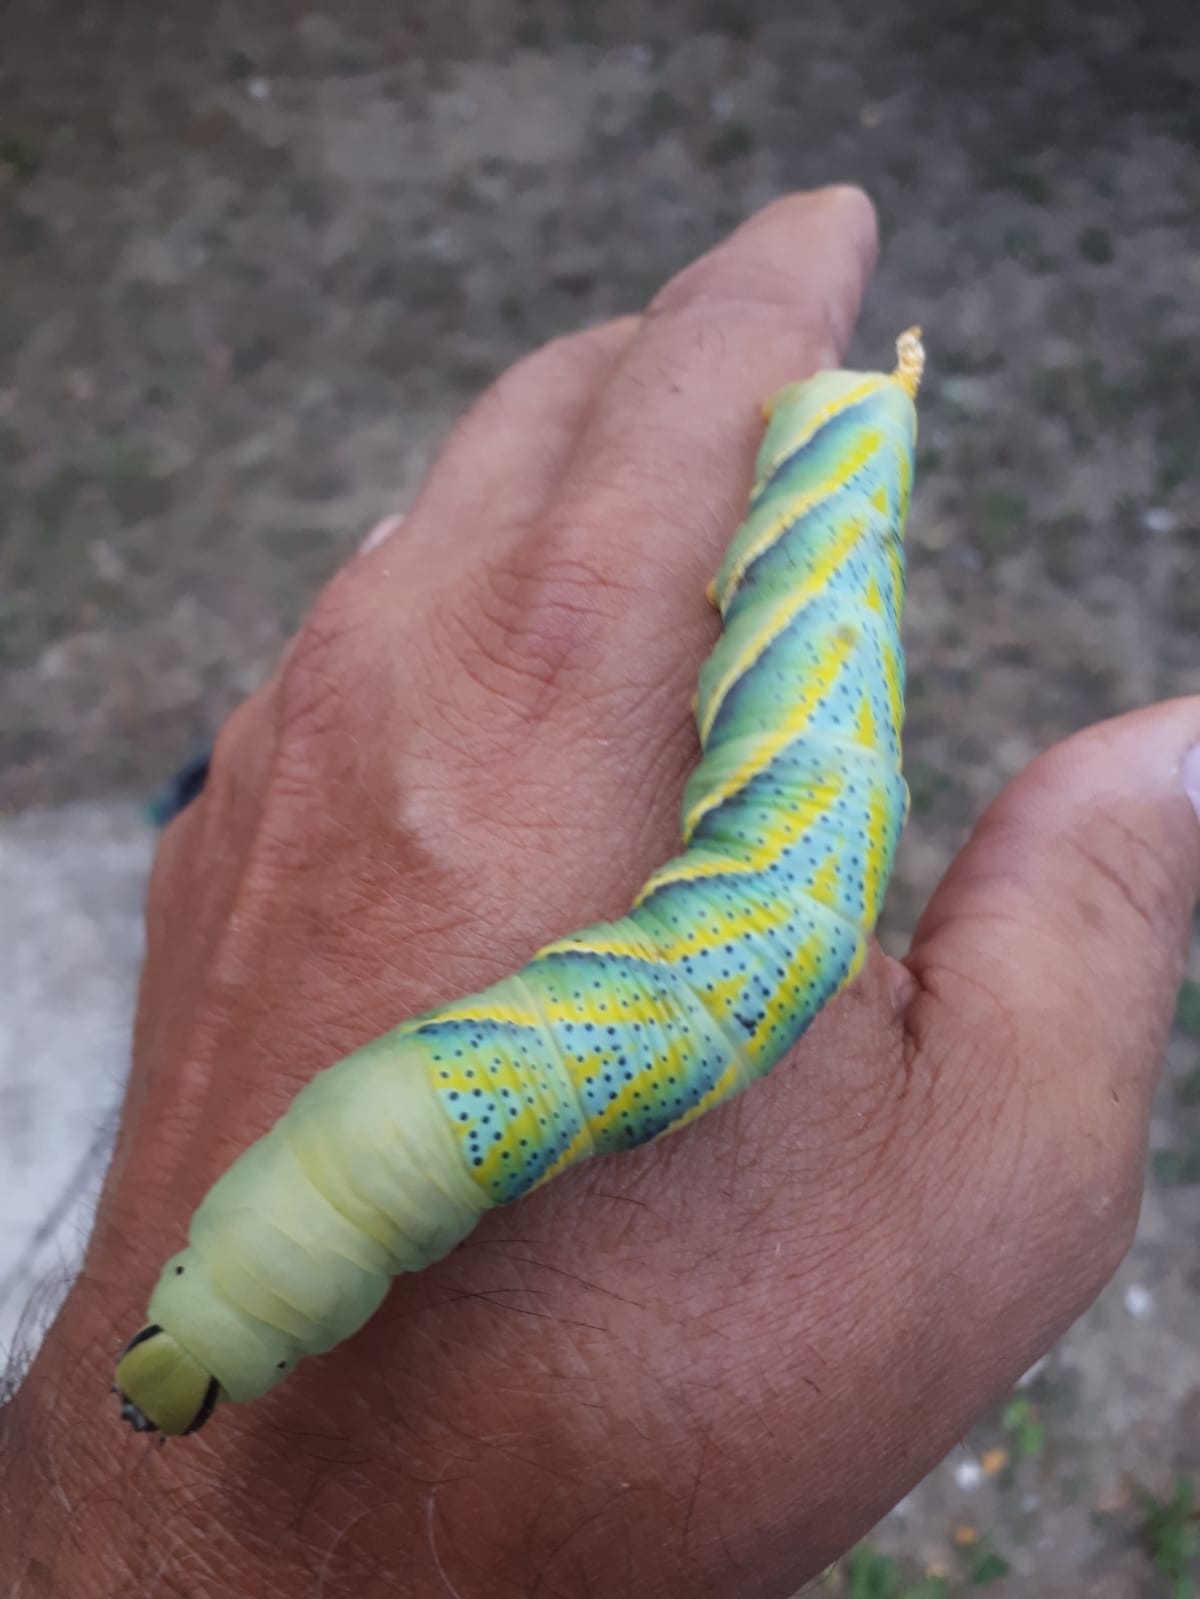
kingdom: Animalia
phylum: Arthropoda
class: Insecta
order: Lepidoptera
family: Sphingidae
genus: Acherontia
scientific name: Acherontia atropos
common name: Death's-head hawk moth
